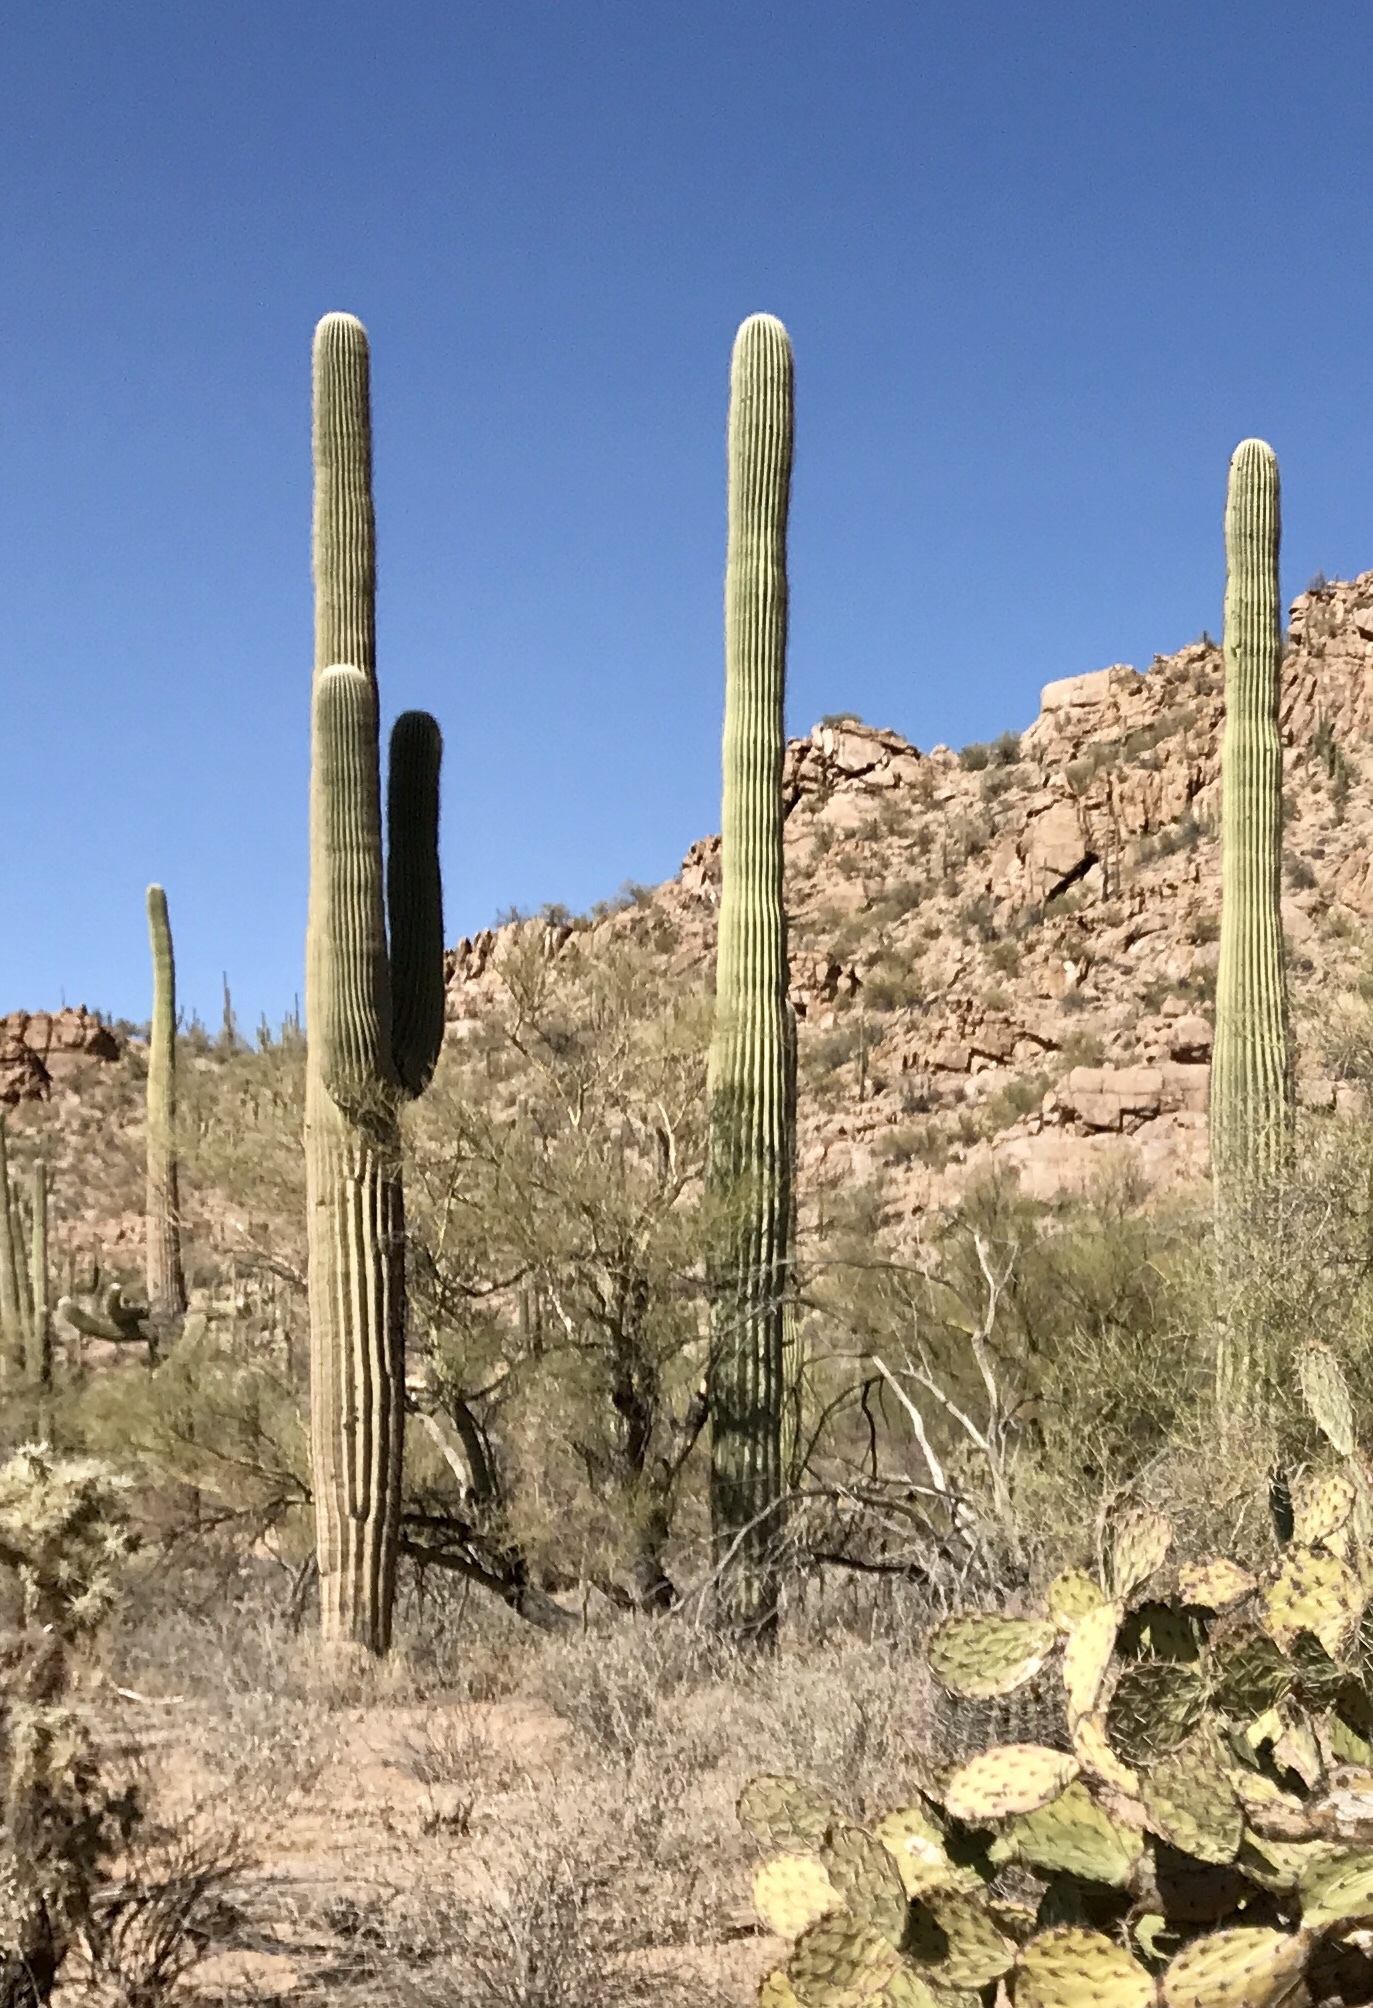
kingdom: Plantae
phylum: Tracheophyta
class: Magnoliopsida
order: Caryophyllales
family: Cactaceae
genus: Carnegiea
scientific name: Carnegiea gigantea
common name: Saguaro
